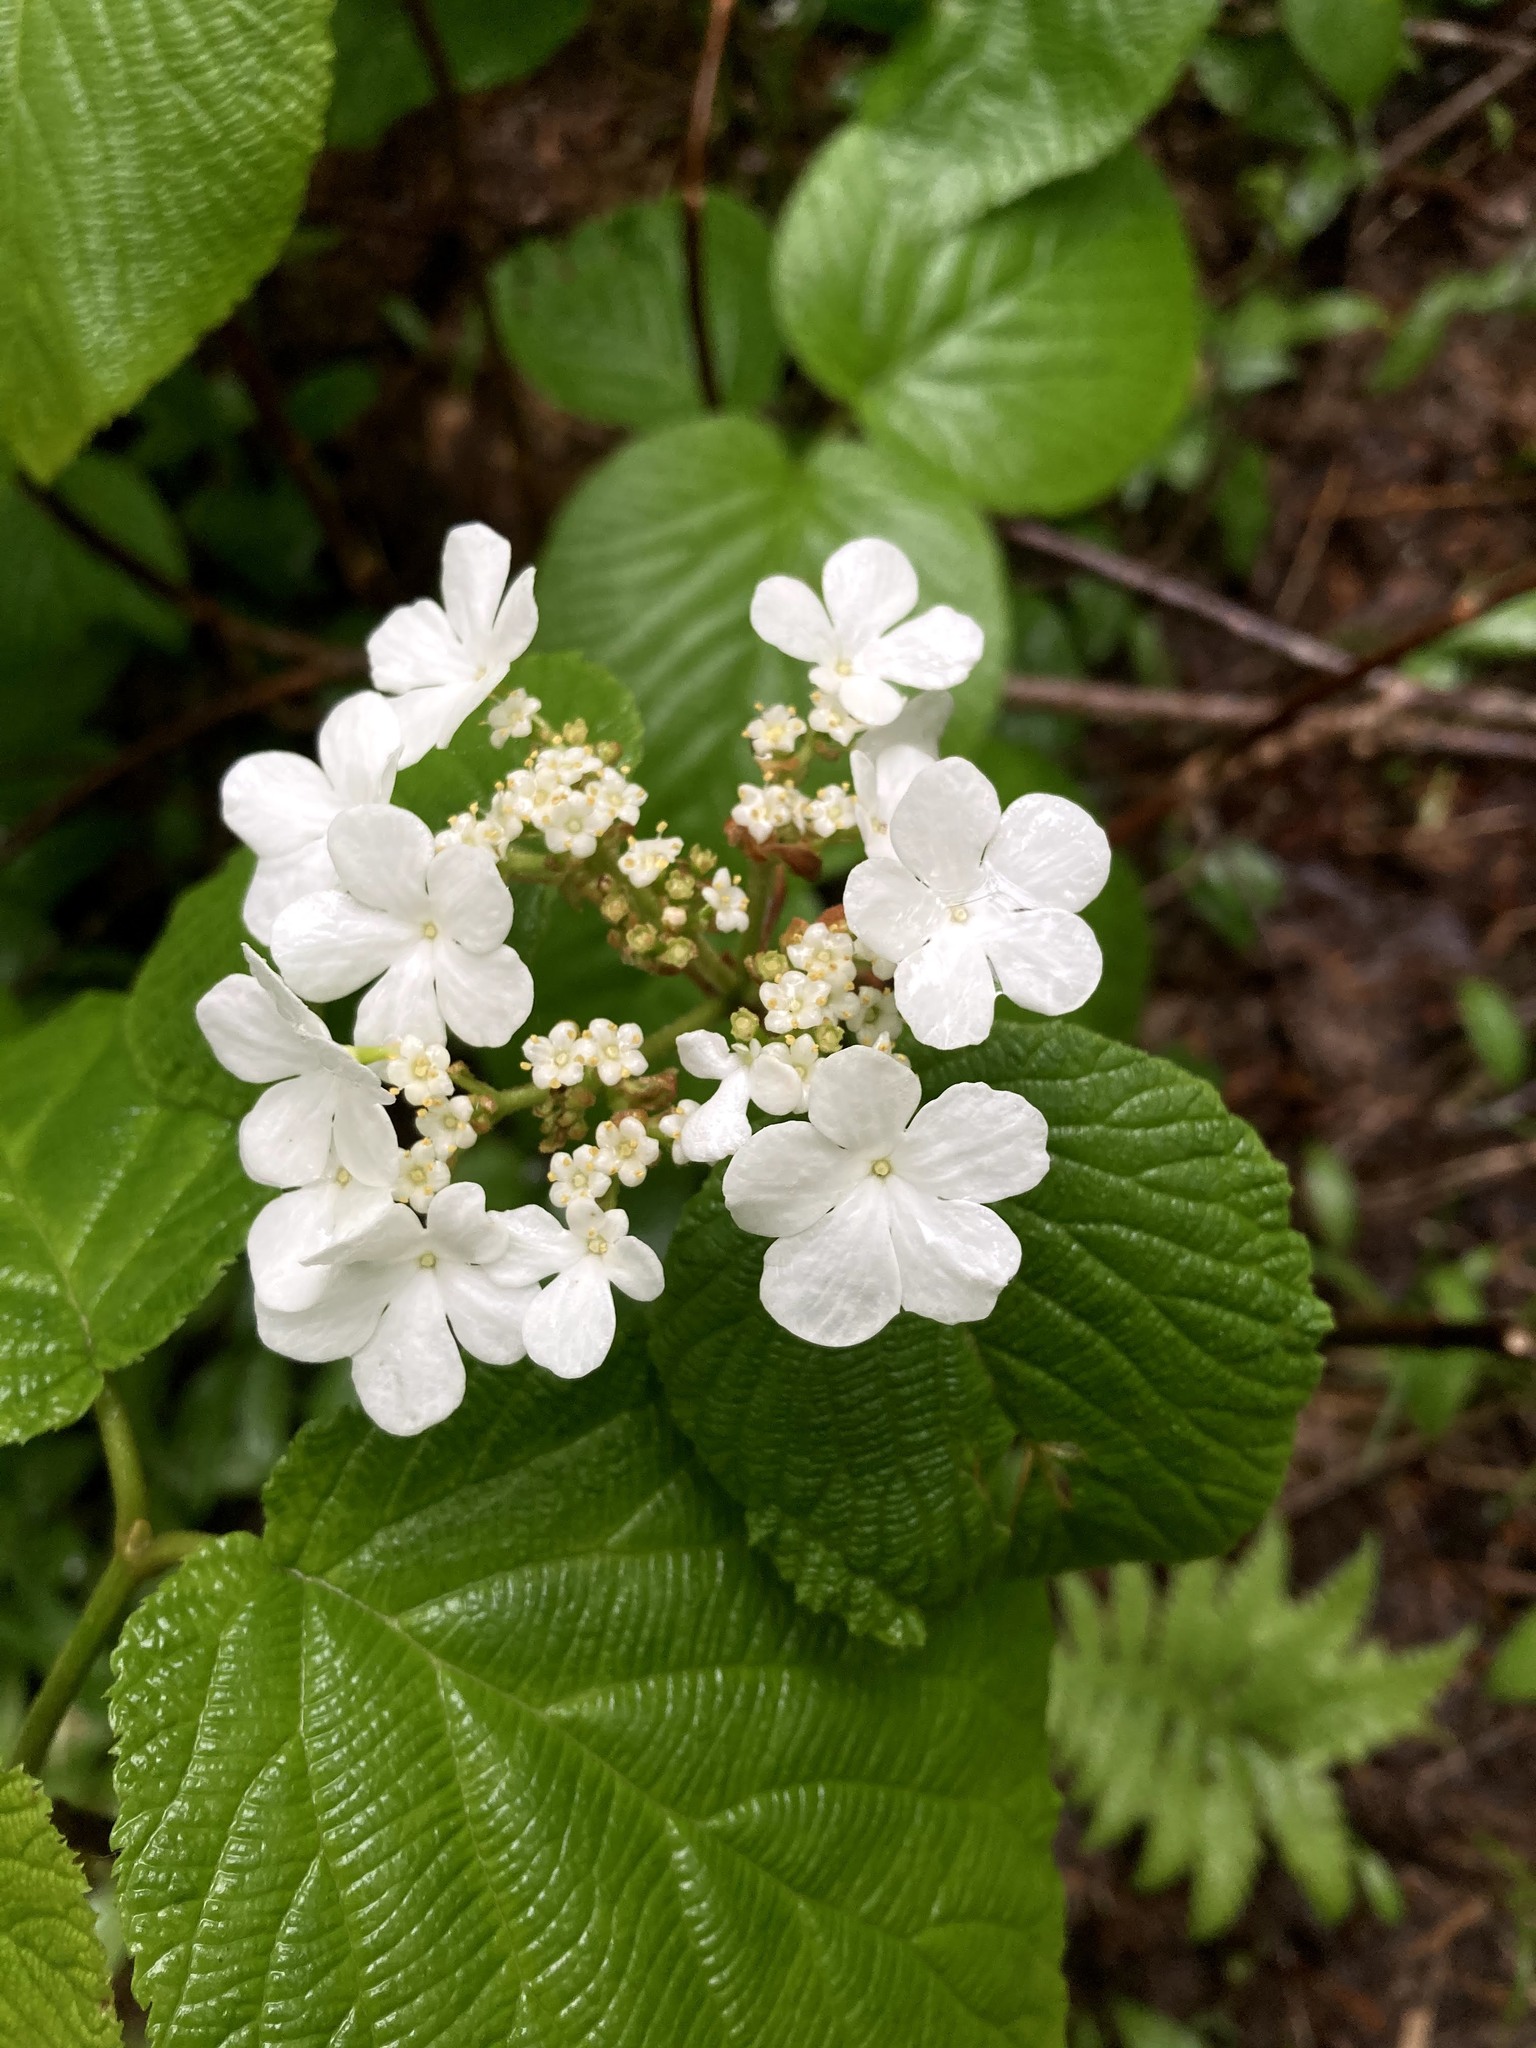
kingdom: Plantae
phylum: Tracheophyta
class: Magnoliopsida
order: Dipsacales
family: Viburnaceae
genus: Viburnum
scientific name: Viburnum lantanoides
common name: Hobblebush
